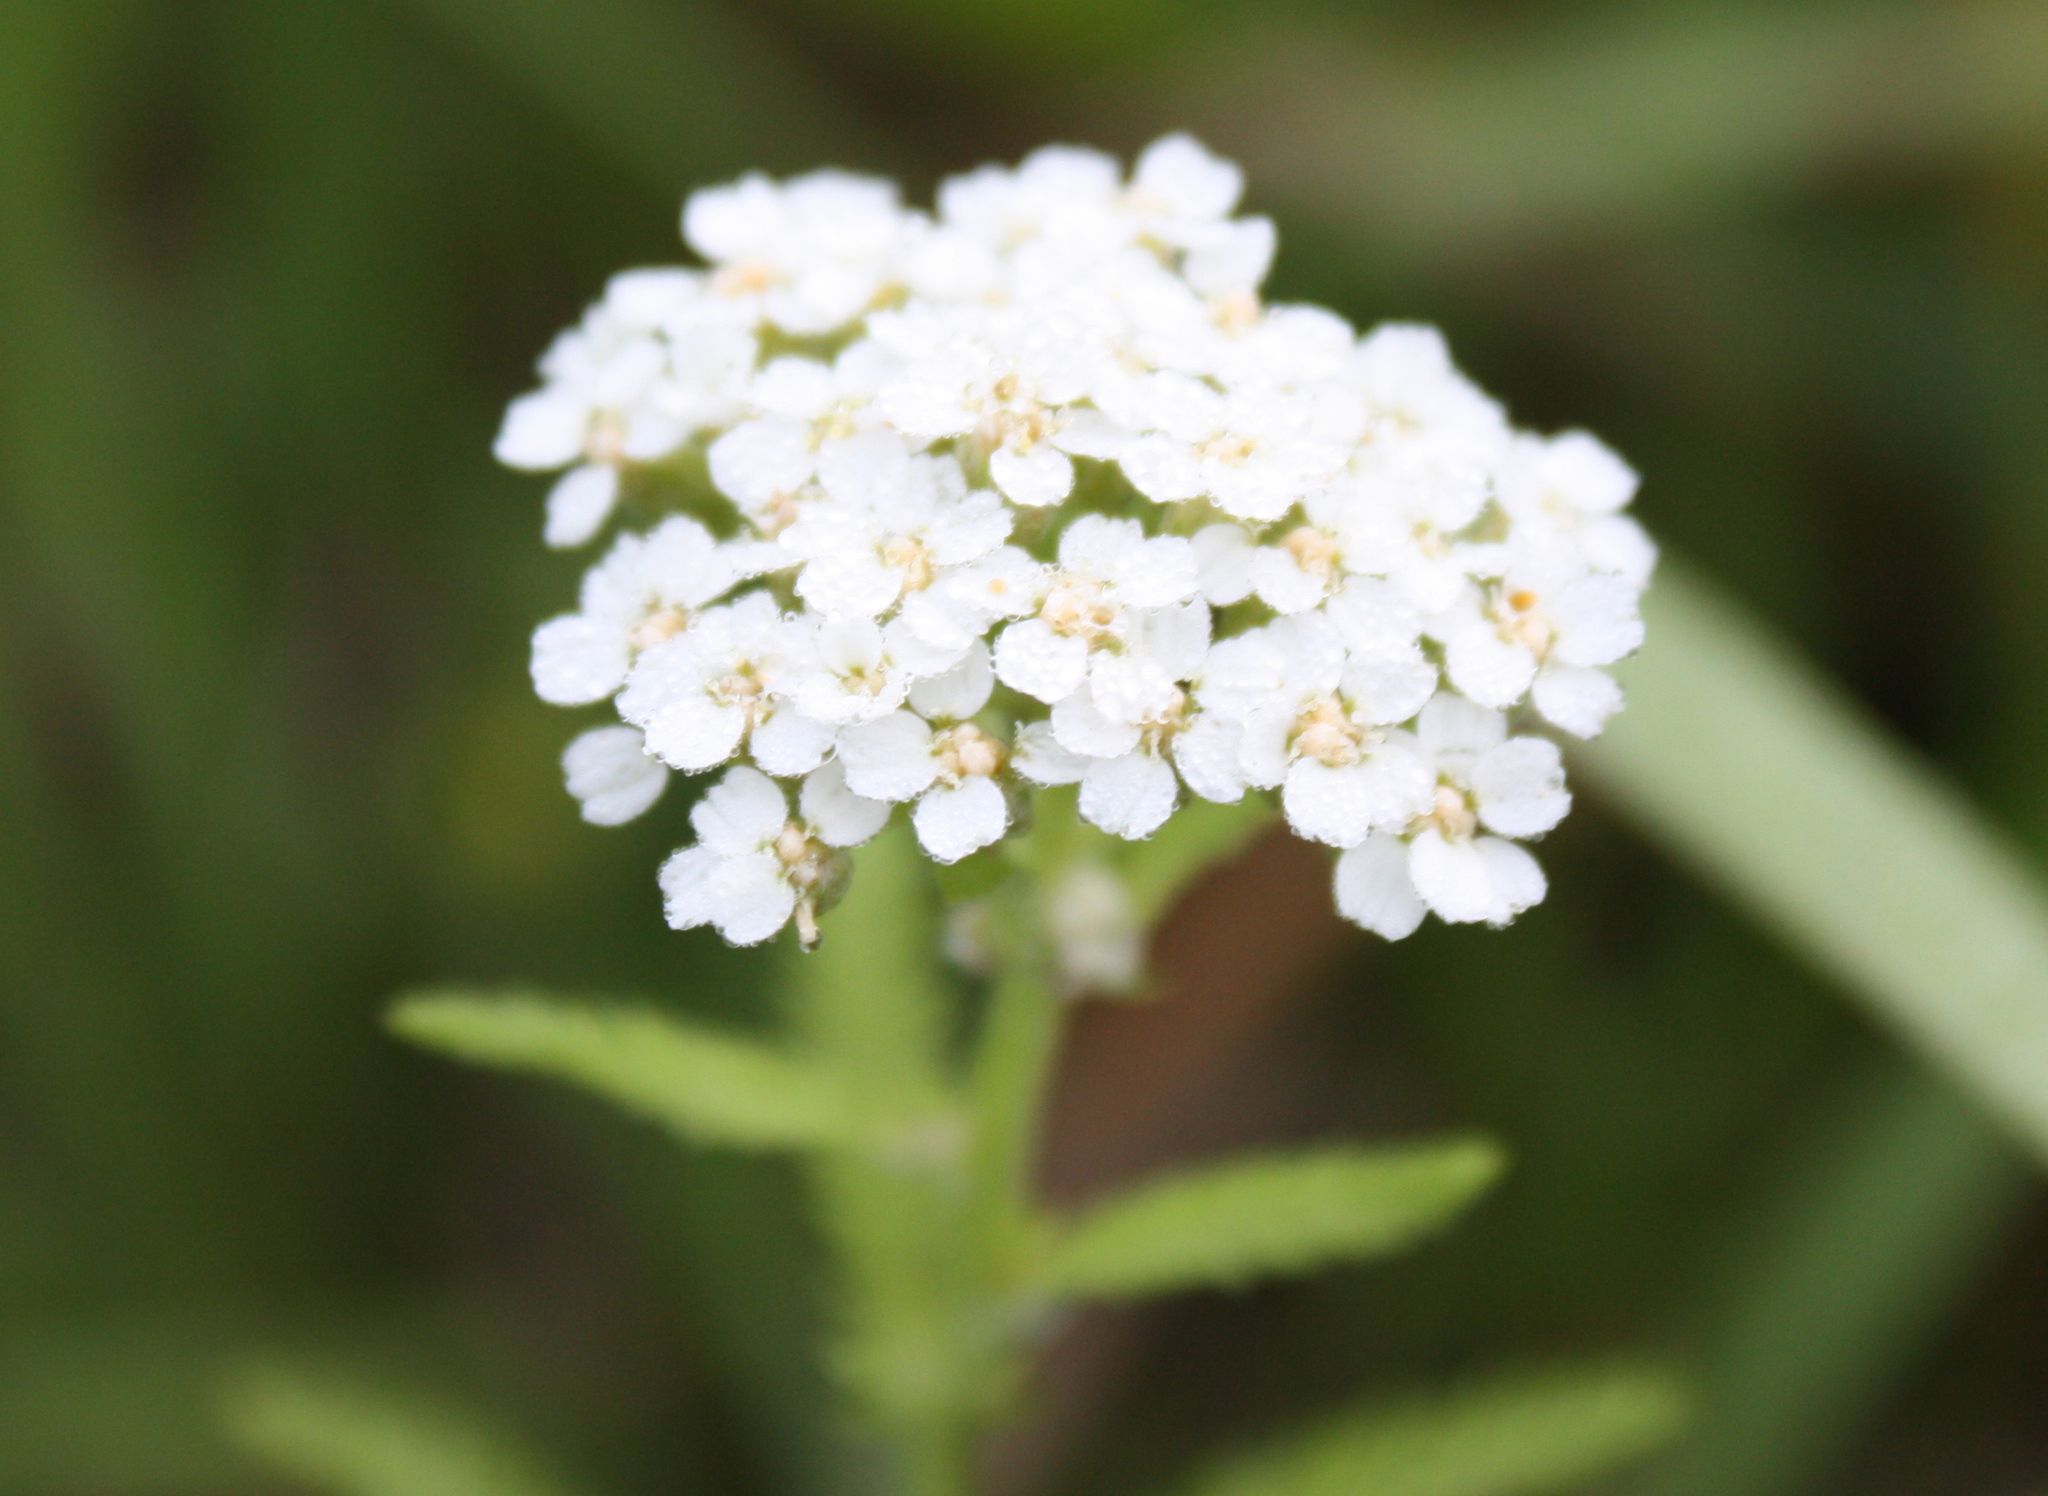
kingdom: Plantae
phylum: Tracheophyta
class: Magnoliopsida
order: Asterales
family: Asteraceae
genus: Achillea
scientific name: Achillea millefolium
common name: Yarrow
